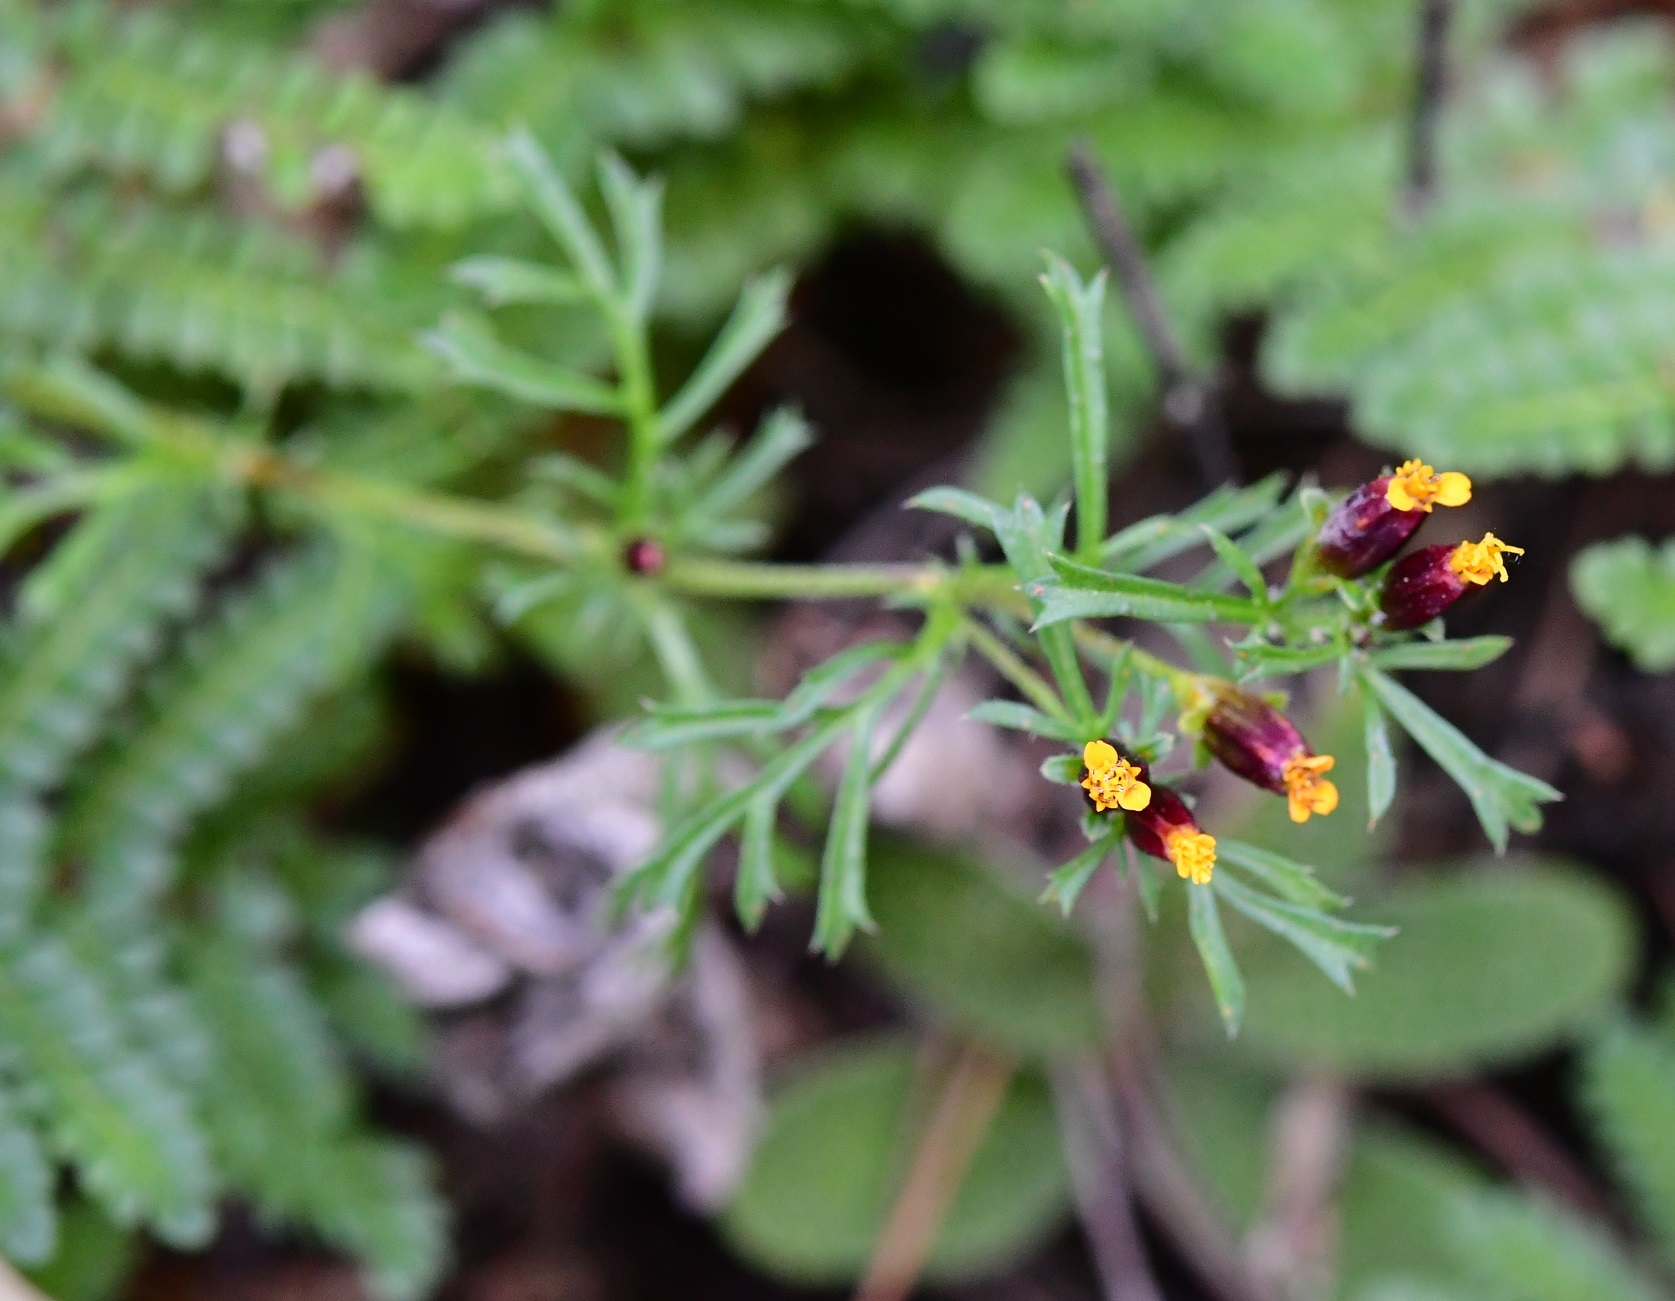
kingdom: Plantae
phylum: Tracheophyta
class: Magnoliopsida
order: Asterales
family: Asteraceae
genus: Dyssodia
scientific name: Dyssodia papposa
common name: Dogweed
